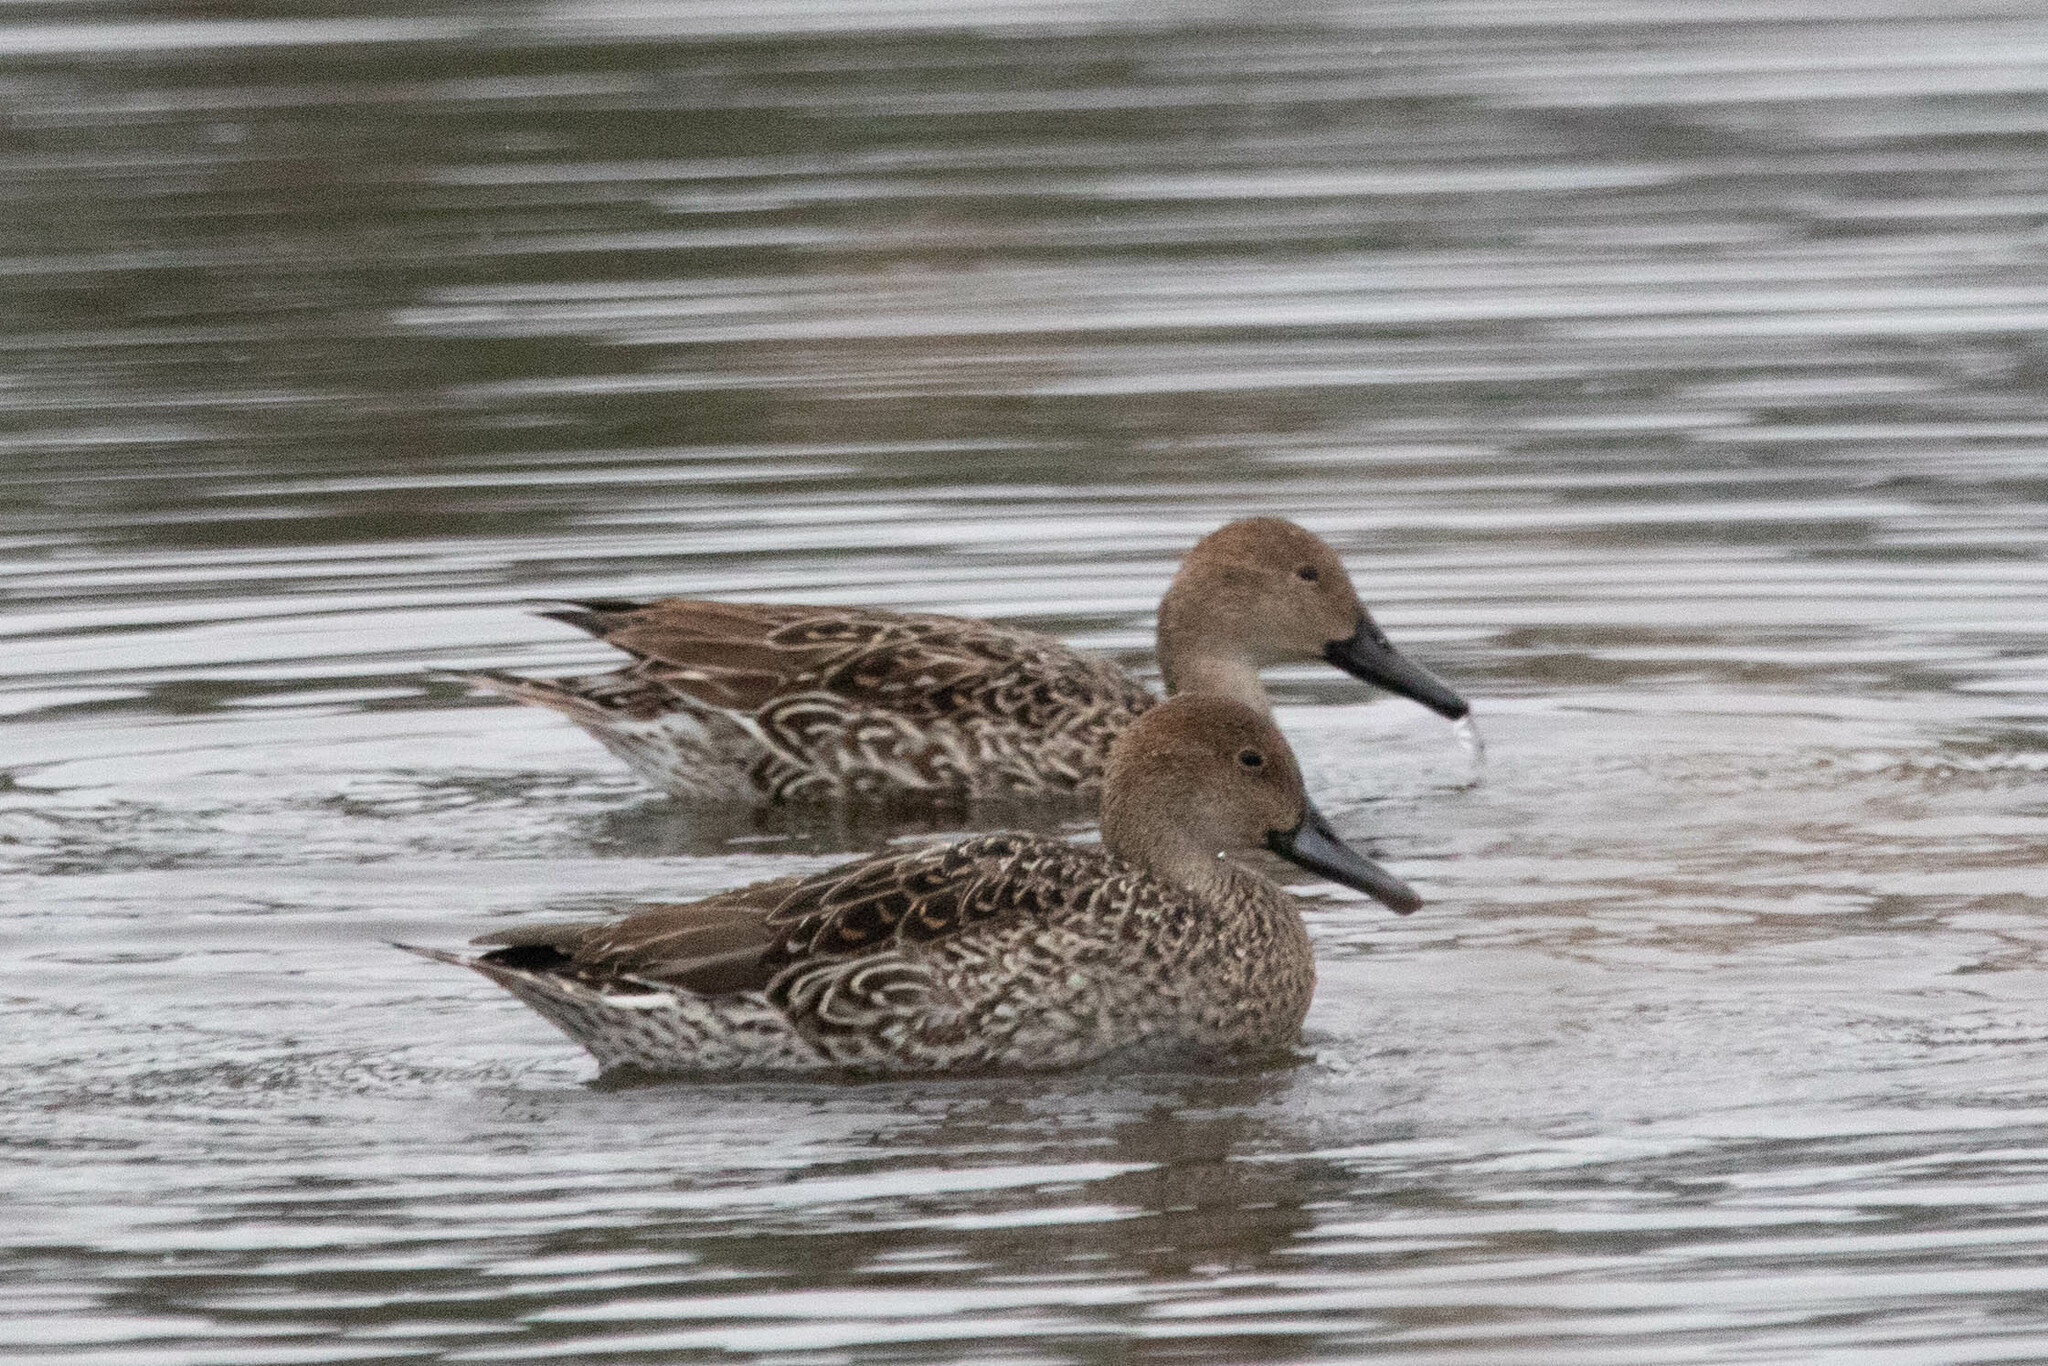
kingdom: Animalia
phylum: Chordata
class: Aves
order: Anseriformes
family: Anatidae
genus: Anas
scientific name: Anas acuta
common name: Northern pintail
